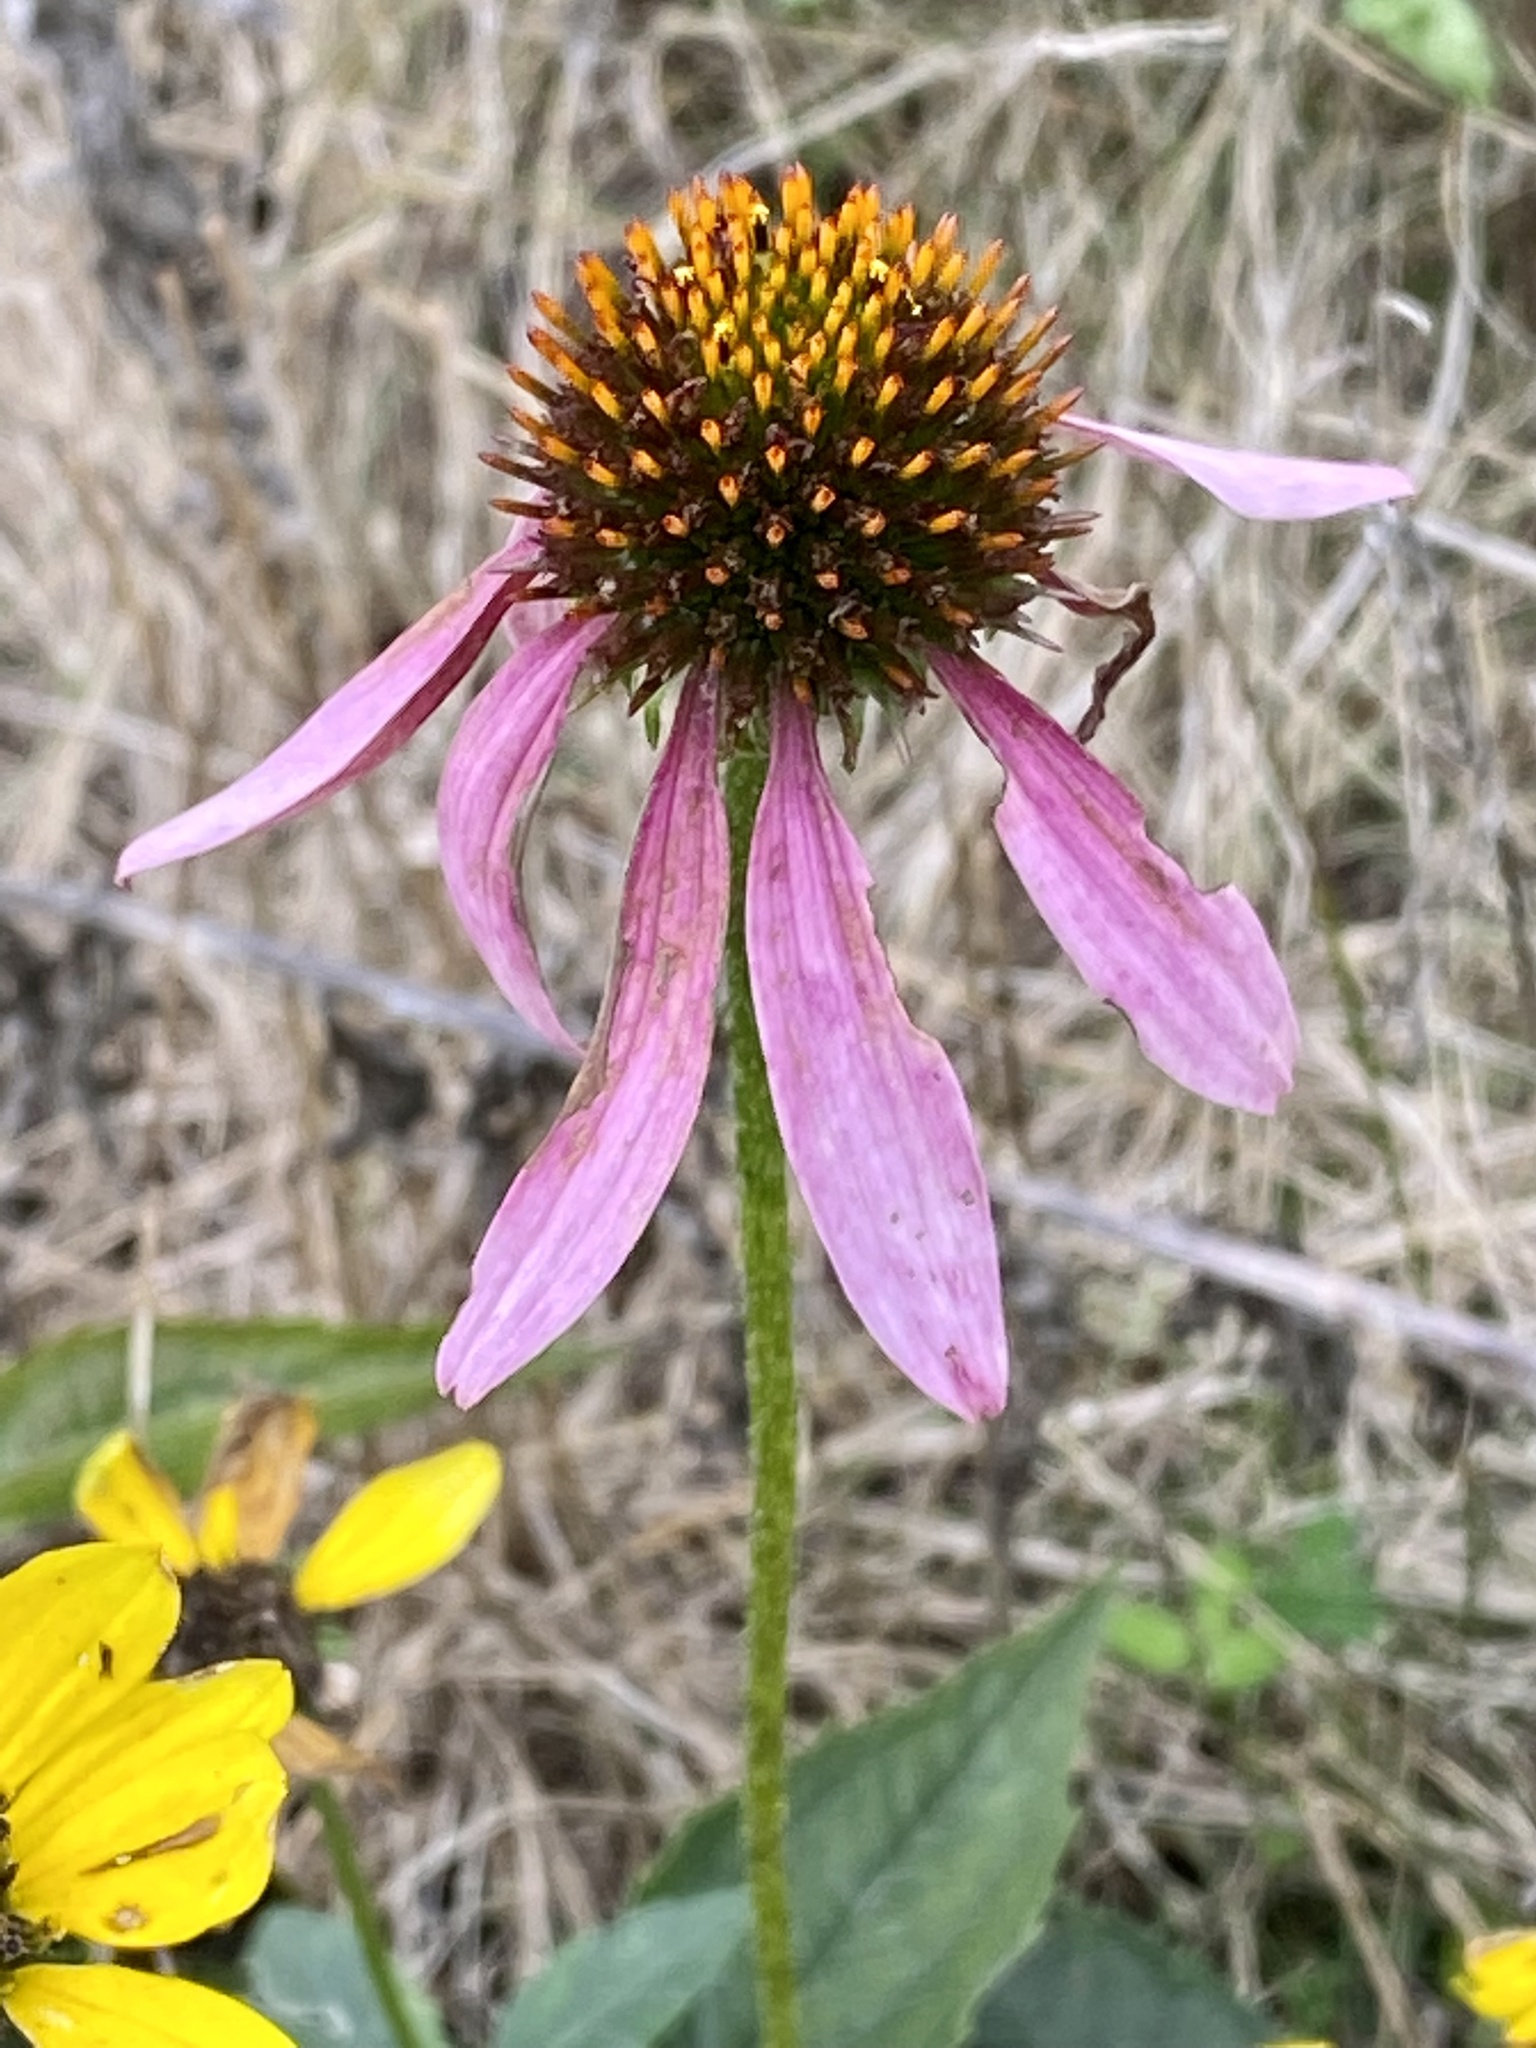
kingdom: Plantae
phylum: Tracheophyta
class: Magnoliopsida
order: Asterales
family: Asteraceae
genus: Echinacea
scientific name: Echinacea purpurea
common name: Broad-leaved purple coneflower
